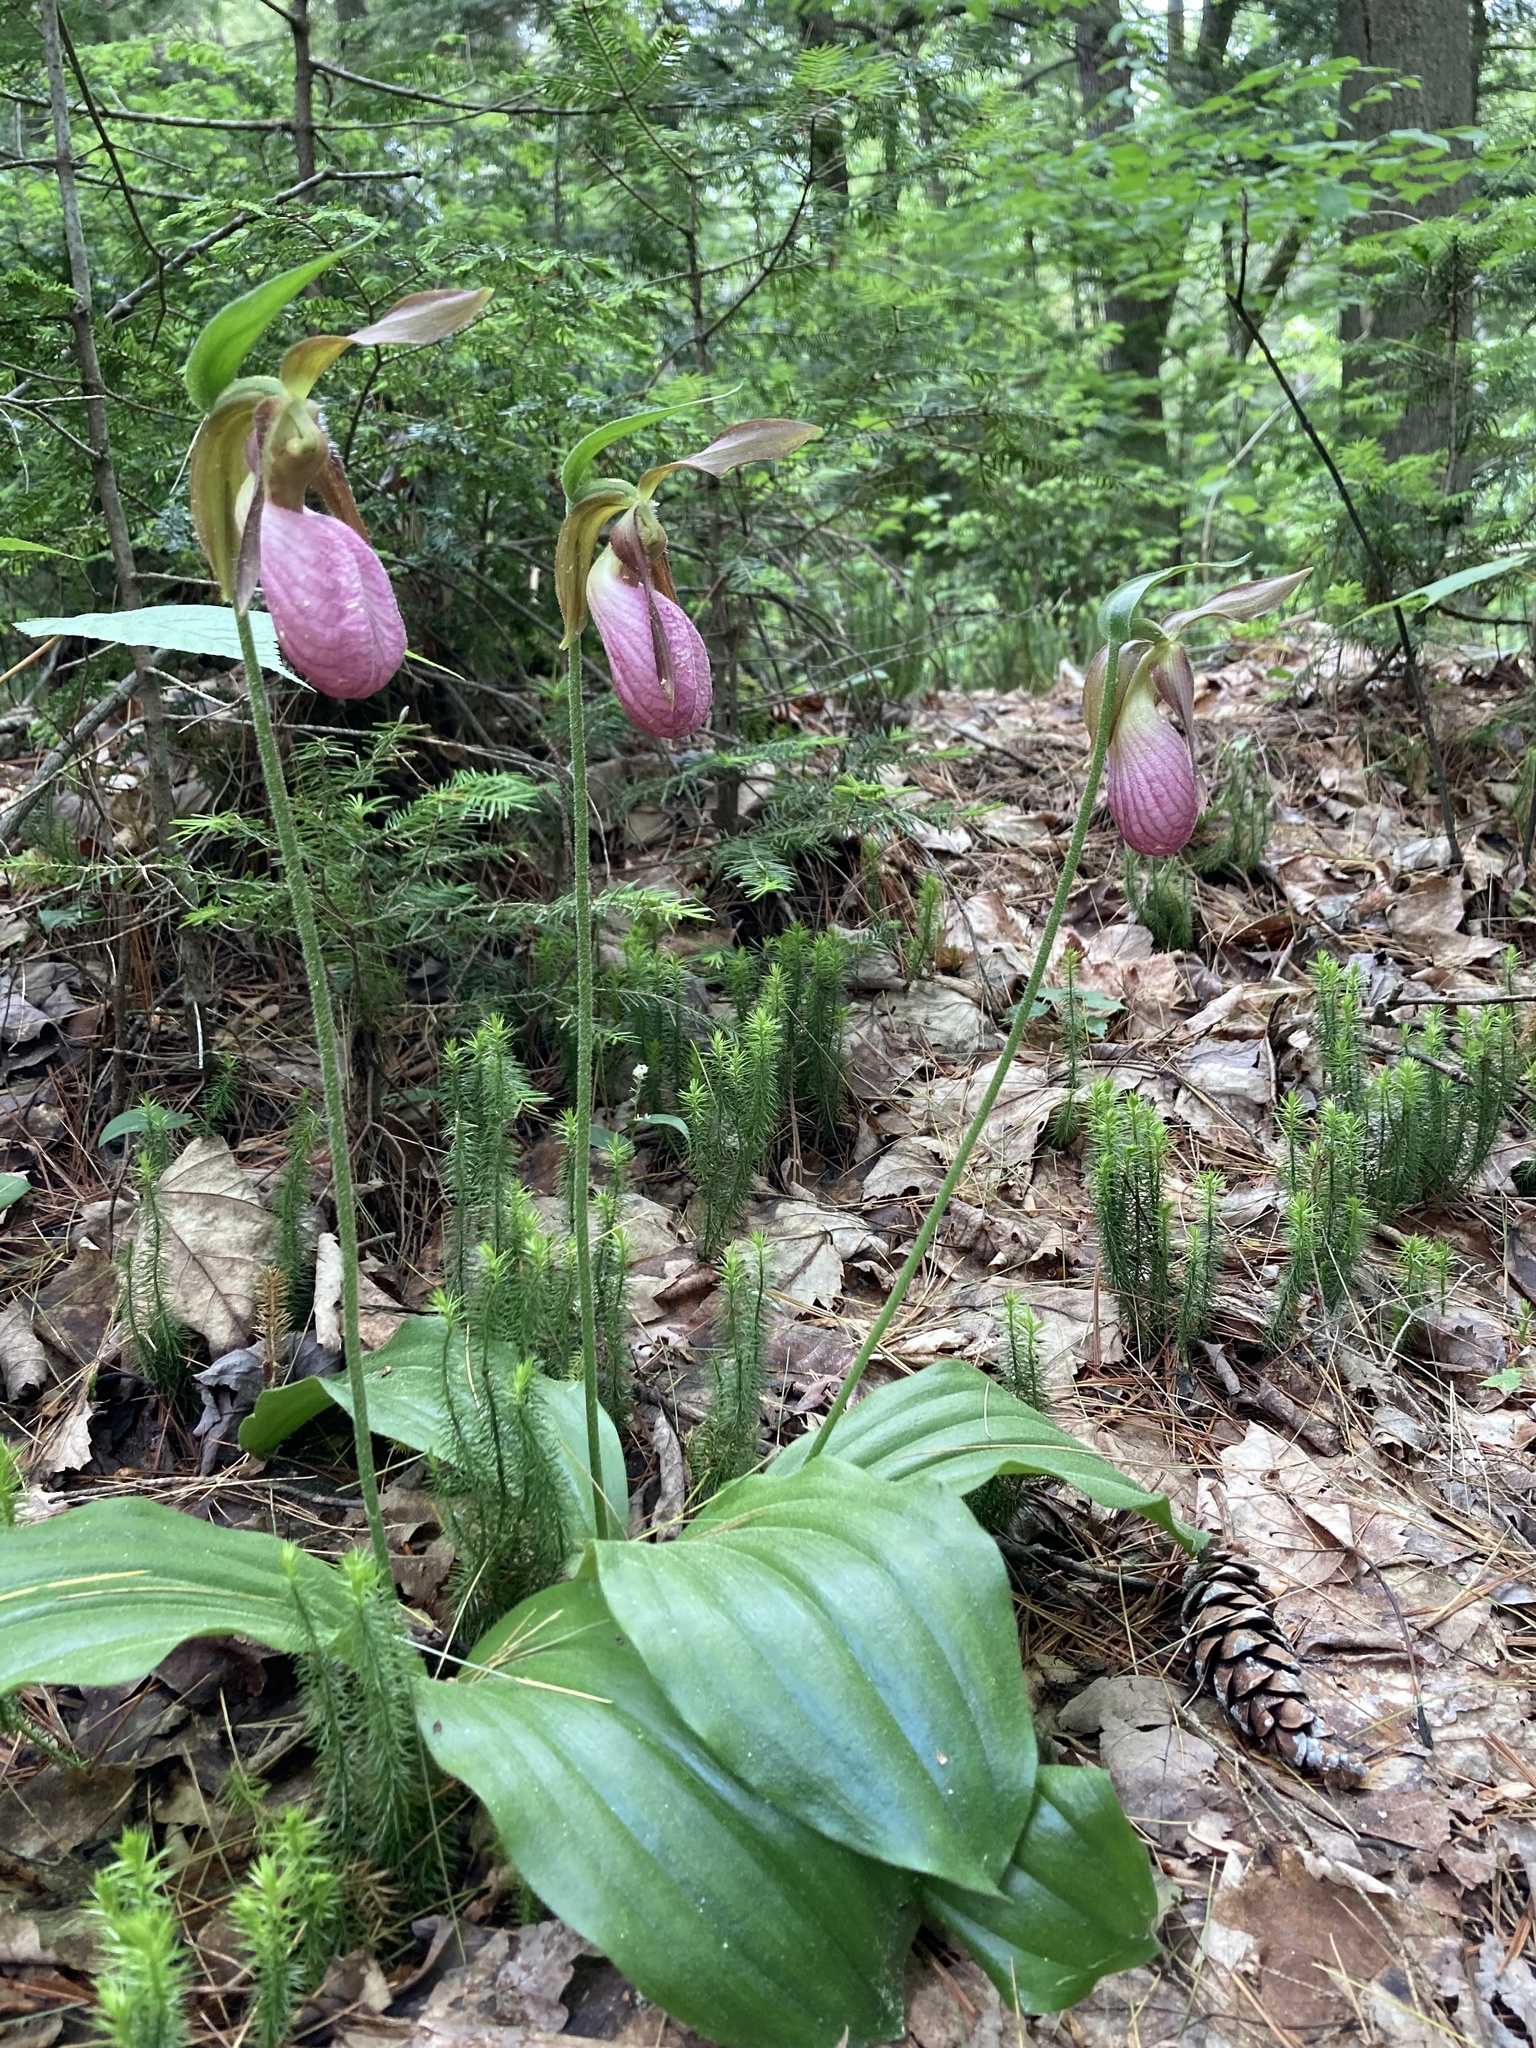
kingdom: Plantae
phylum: Tracheophyta
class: Liliopsida
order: Asparagales
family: Orchidaceae
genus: Cypripedium
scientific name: Cypripedium acaule
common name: Pink lady's-slipper
